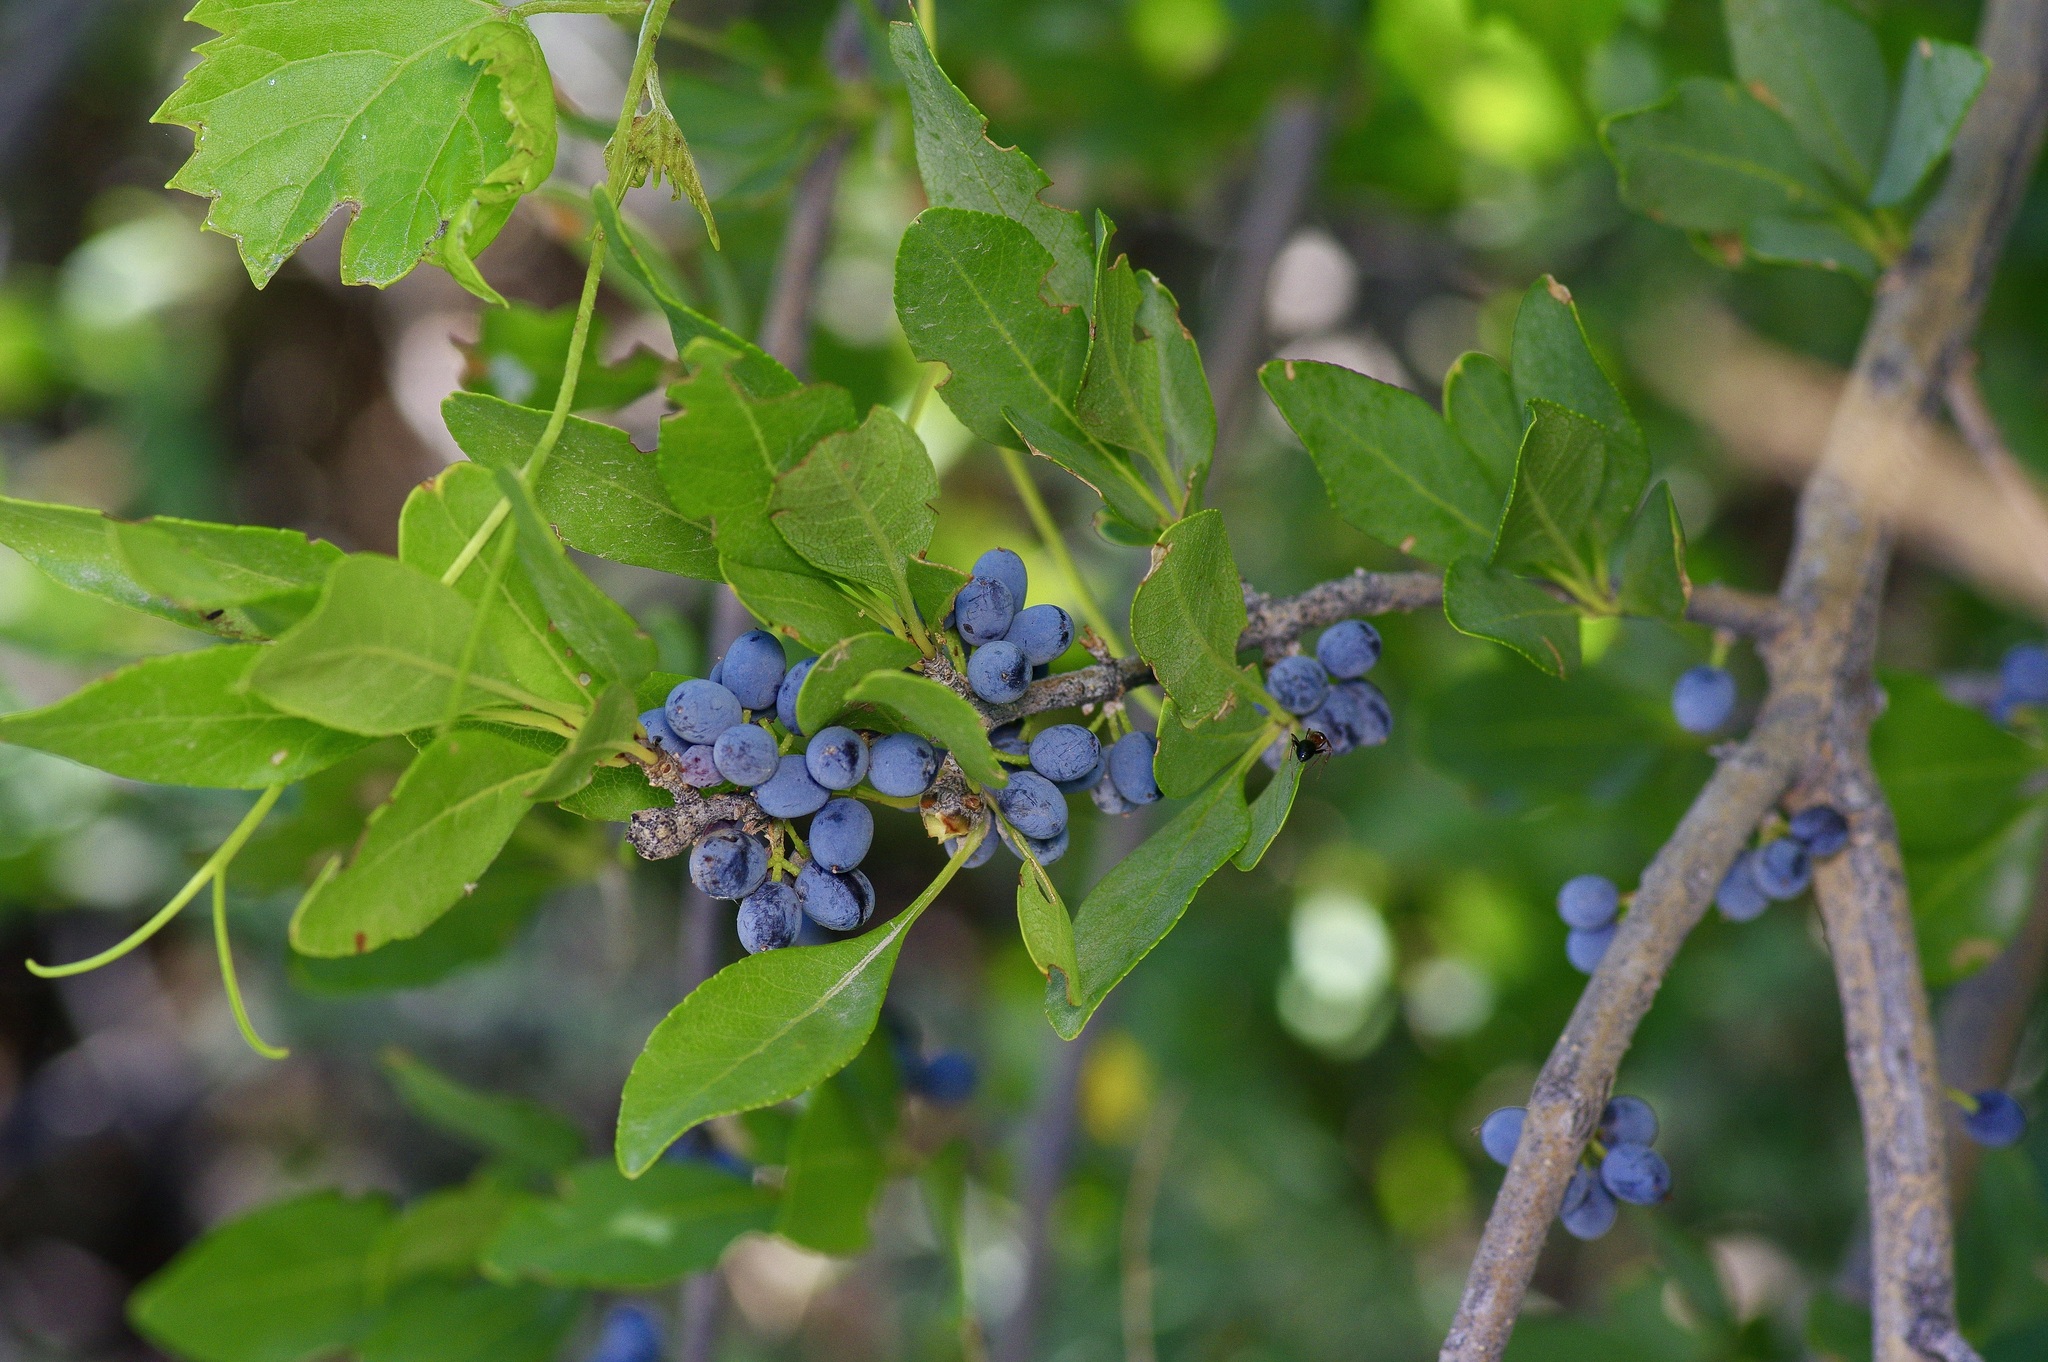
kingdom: Plantae
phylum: Tracheophyta
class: Magnoliopsida
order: Lamiales
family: Oleaceae
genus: Forestiera
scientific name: Forestiera pubescens
